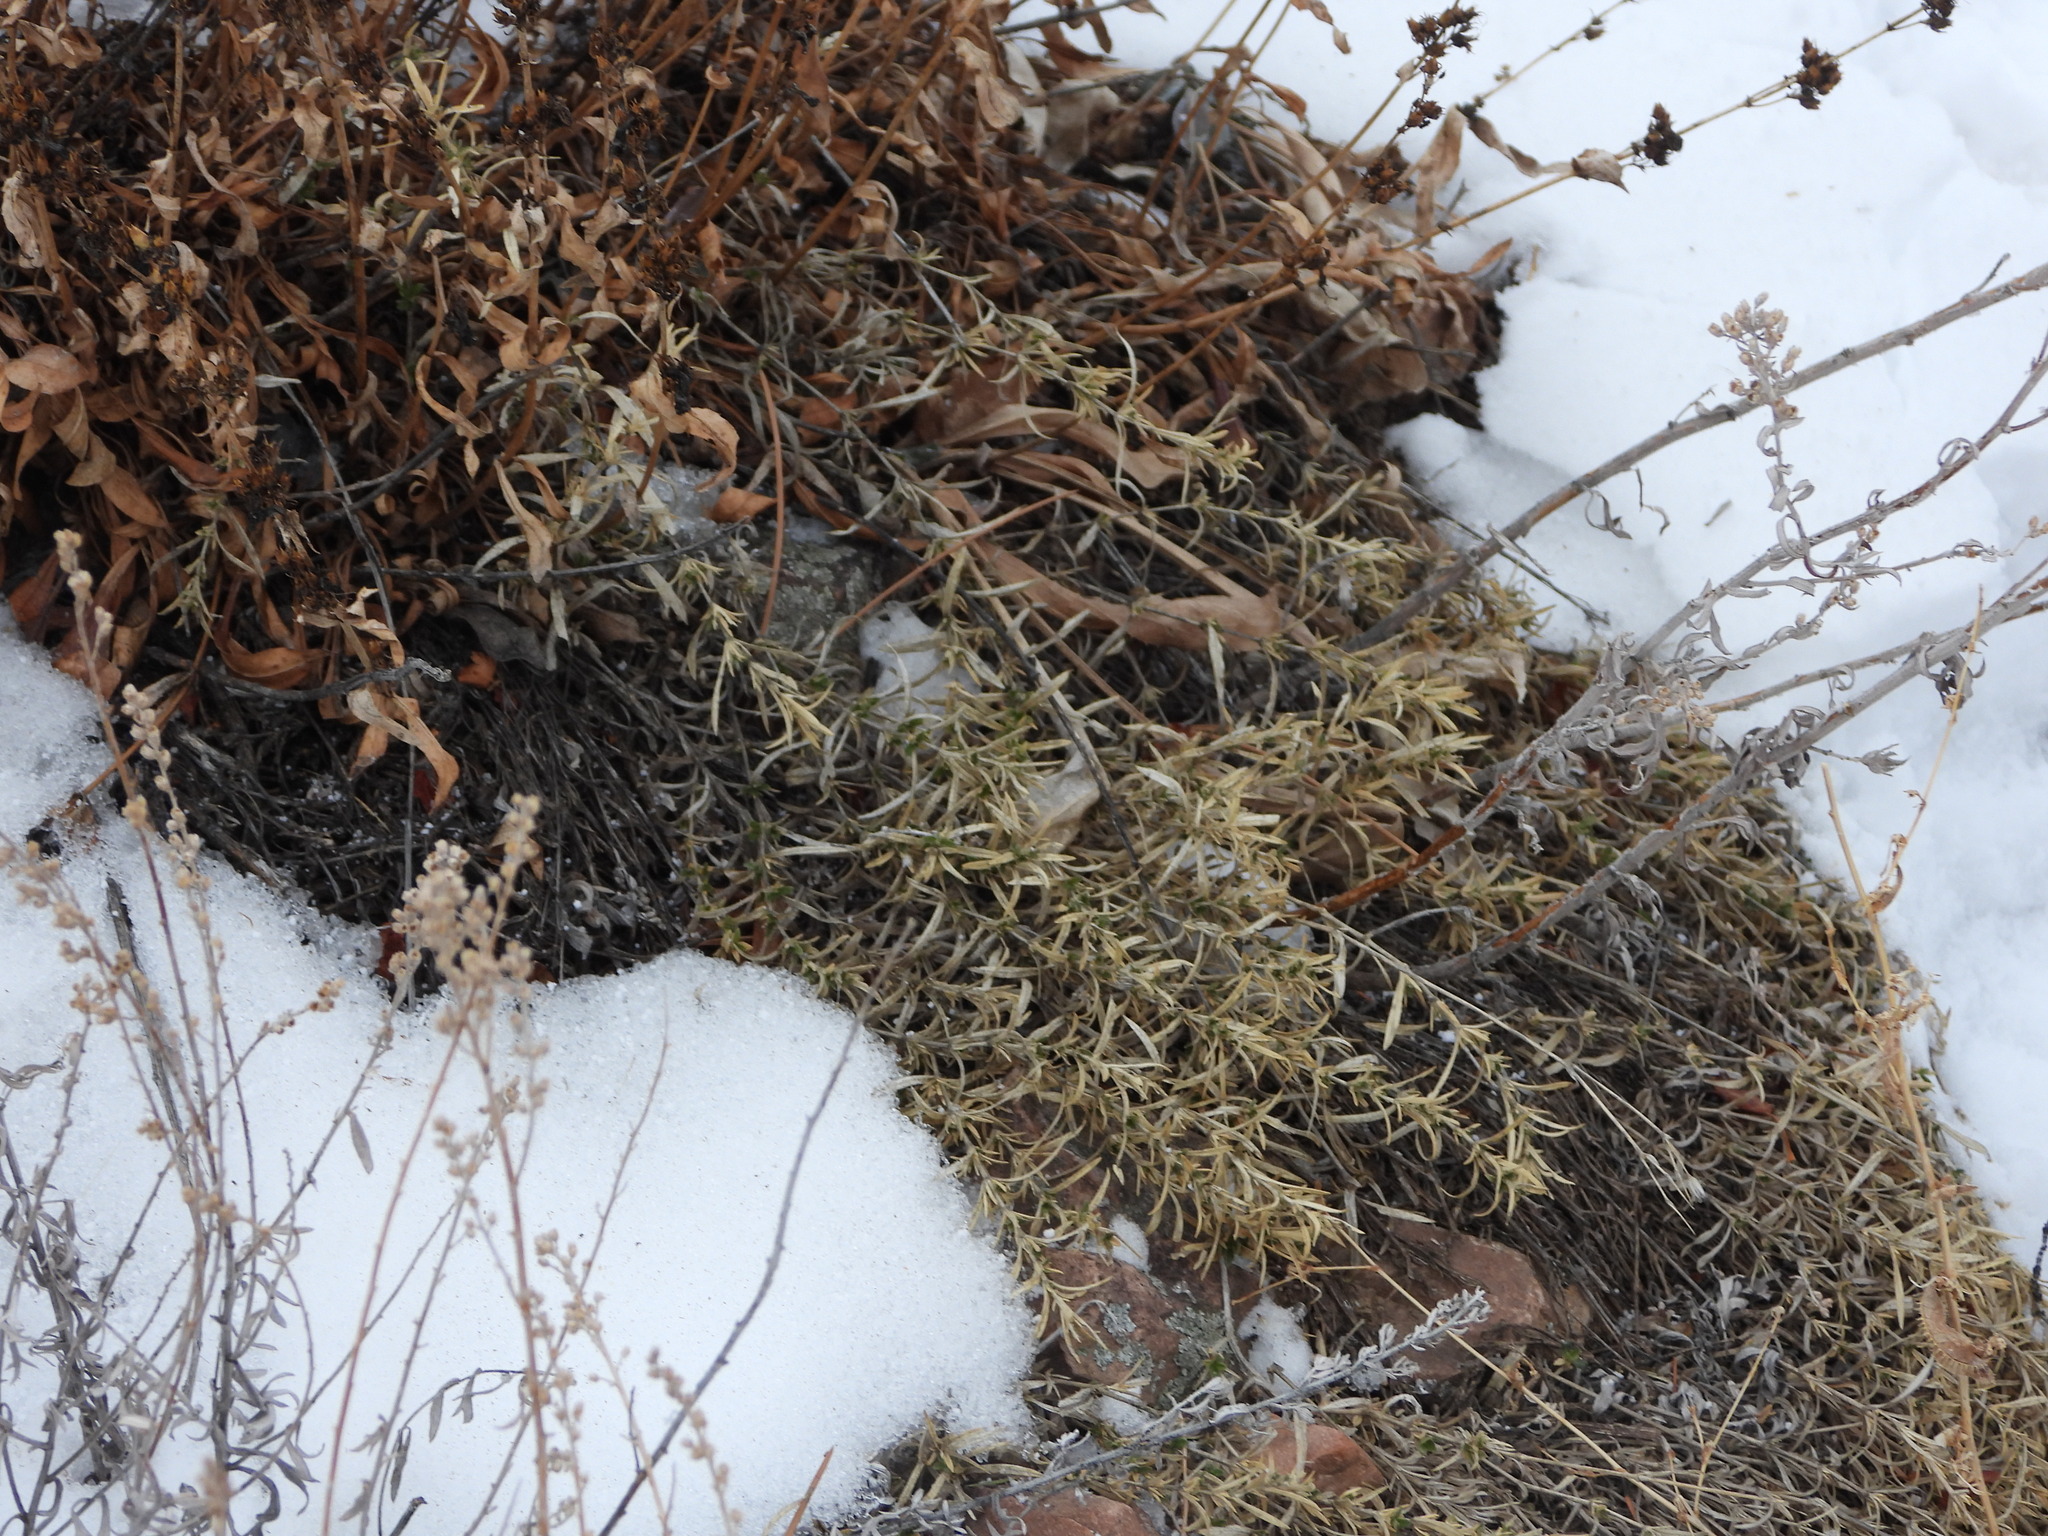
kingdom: Plantae
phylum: Tracheophyta
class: Magnoliopsida
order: Caryophyllales
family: Caryophyllaceae
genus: Cerastium
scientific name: Cerastium elongatum
